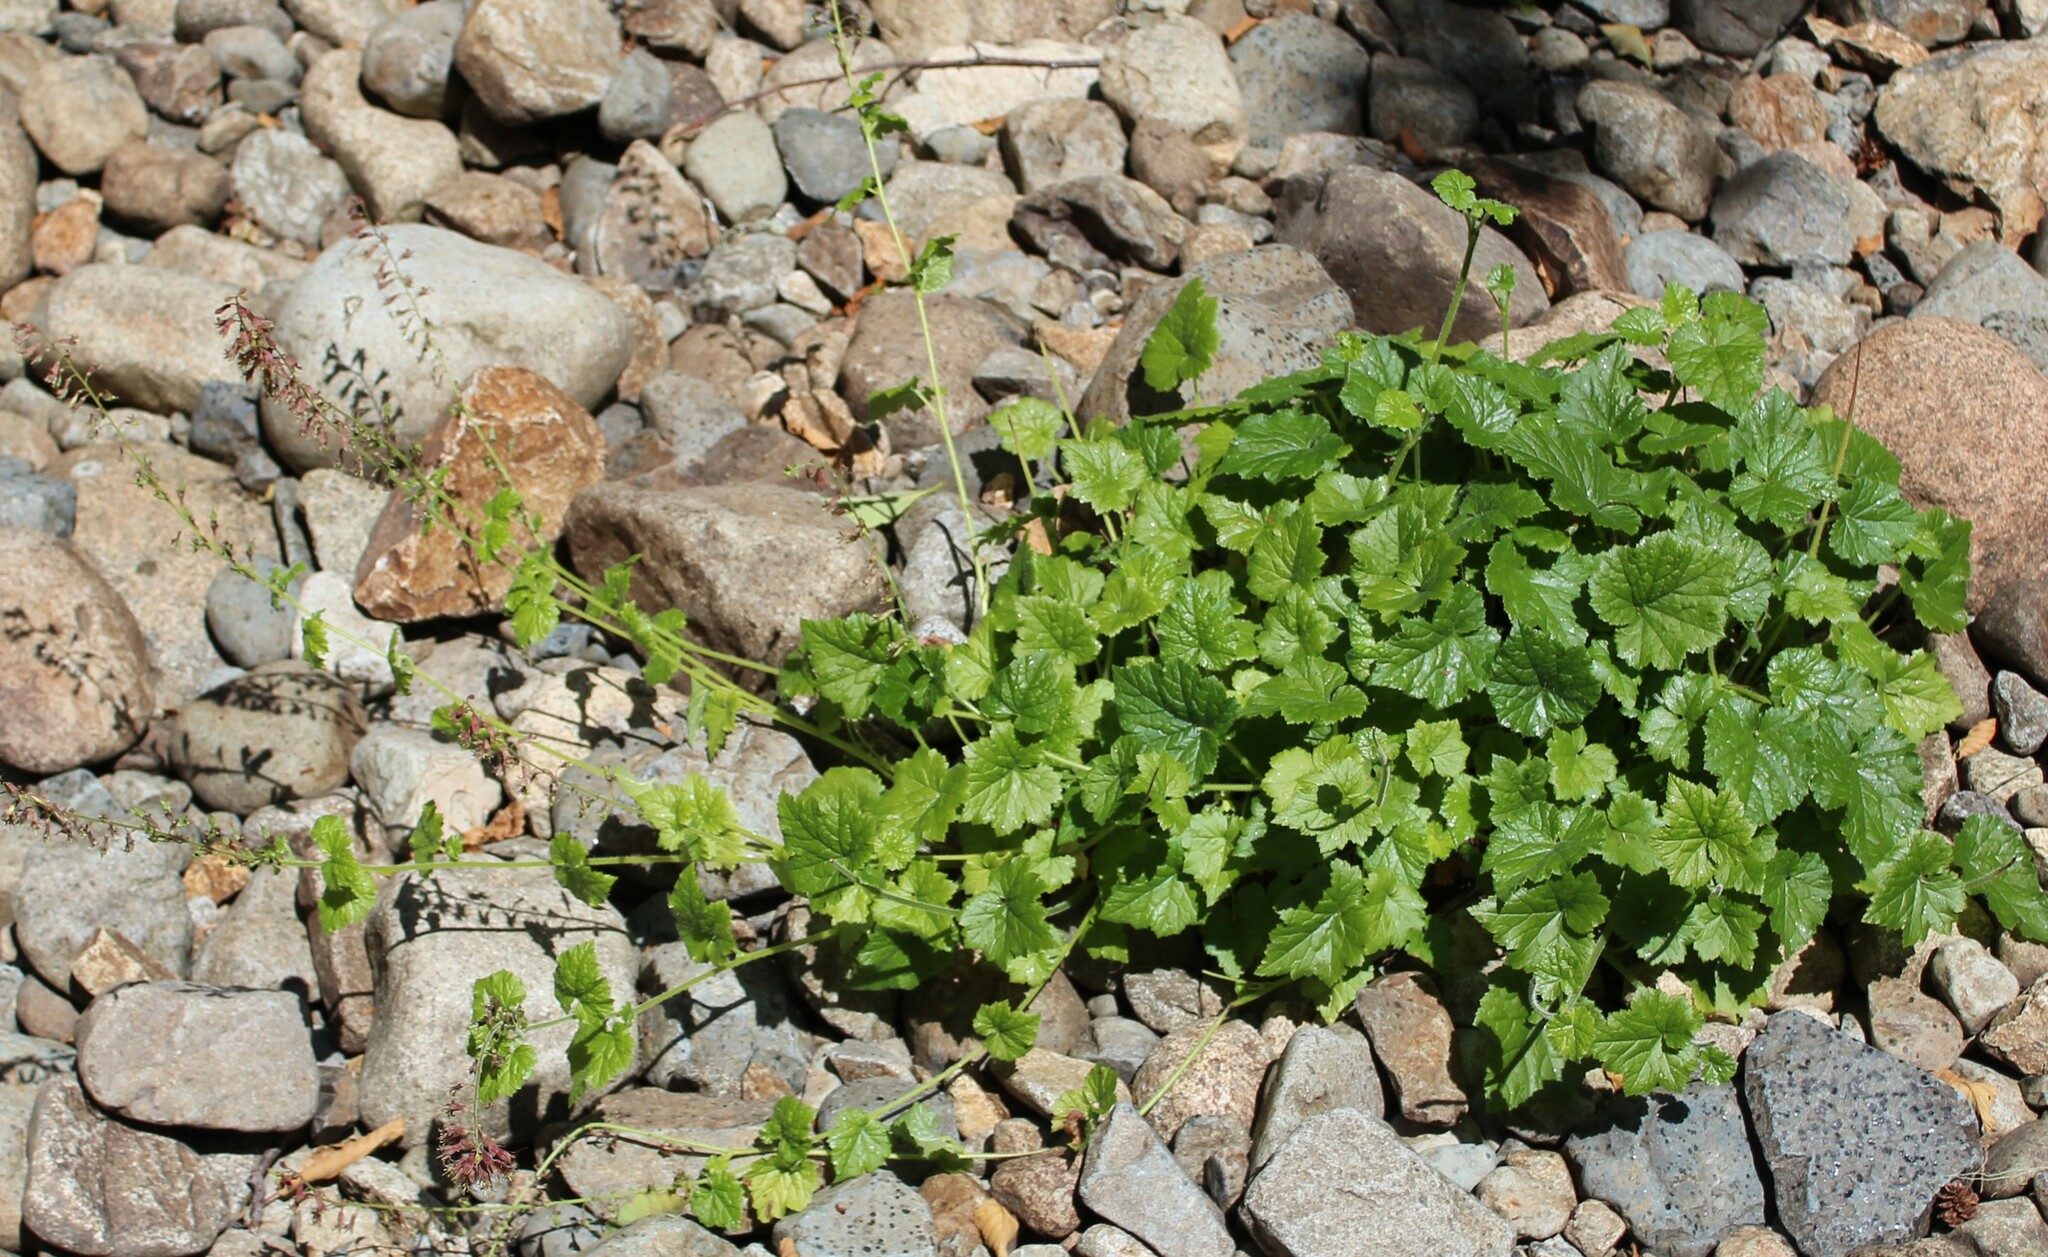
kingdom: Plantae
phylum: Tracheophyta
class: Magnoliopsida
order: Saxifragales
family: Saxifragaceae
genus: Tolmiea
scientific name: Tolmiea menziesii
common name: Pick-a-back-plant
